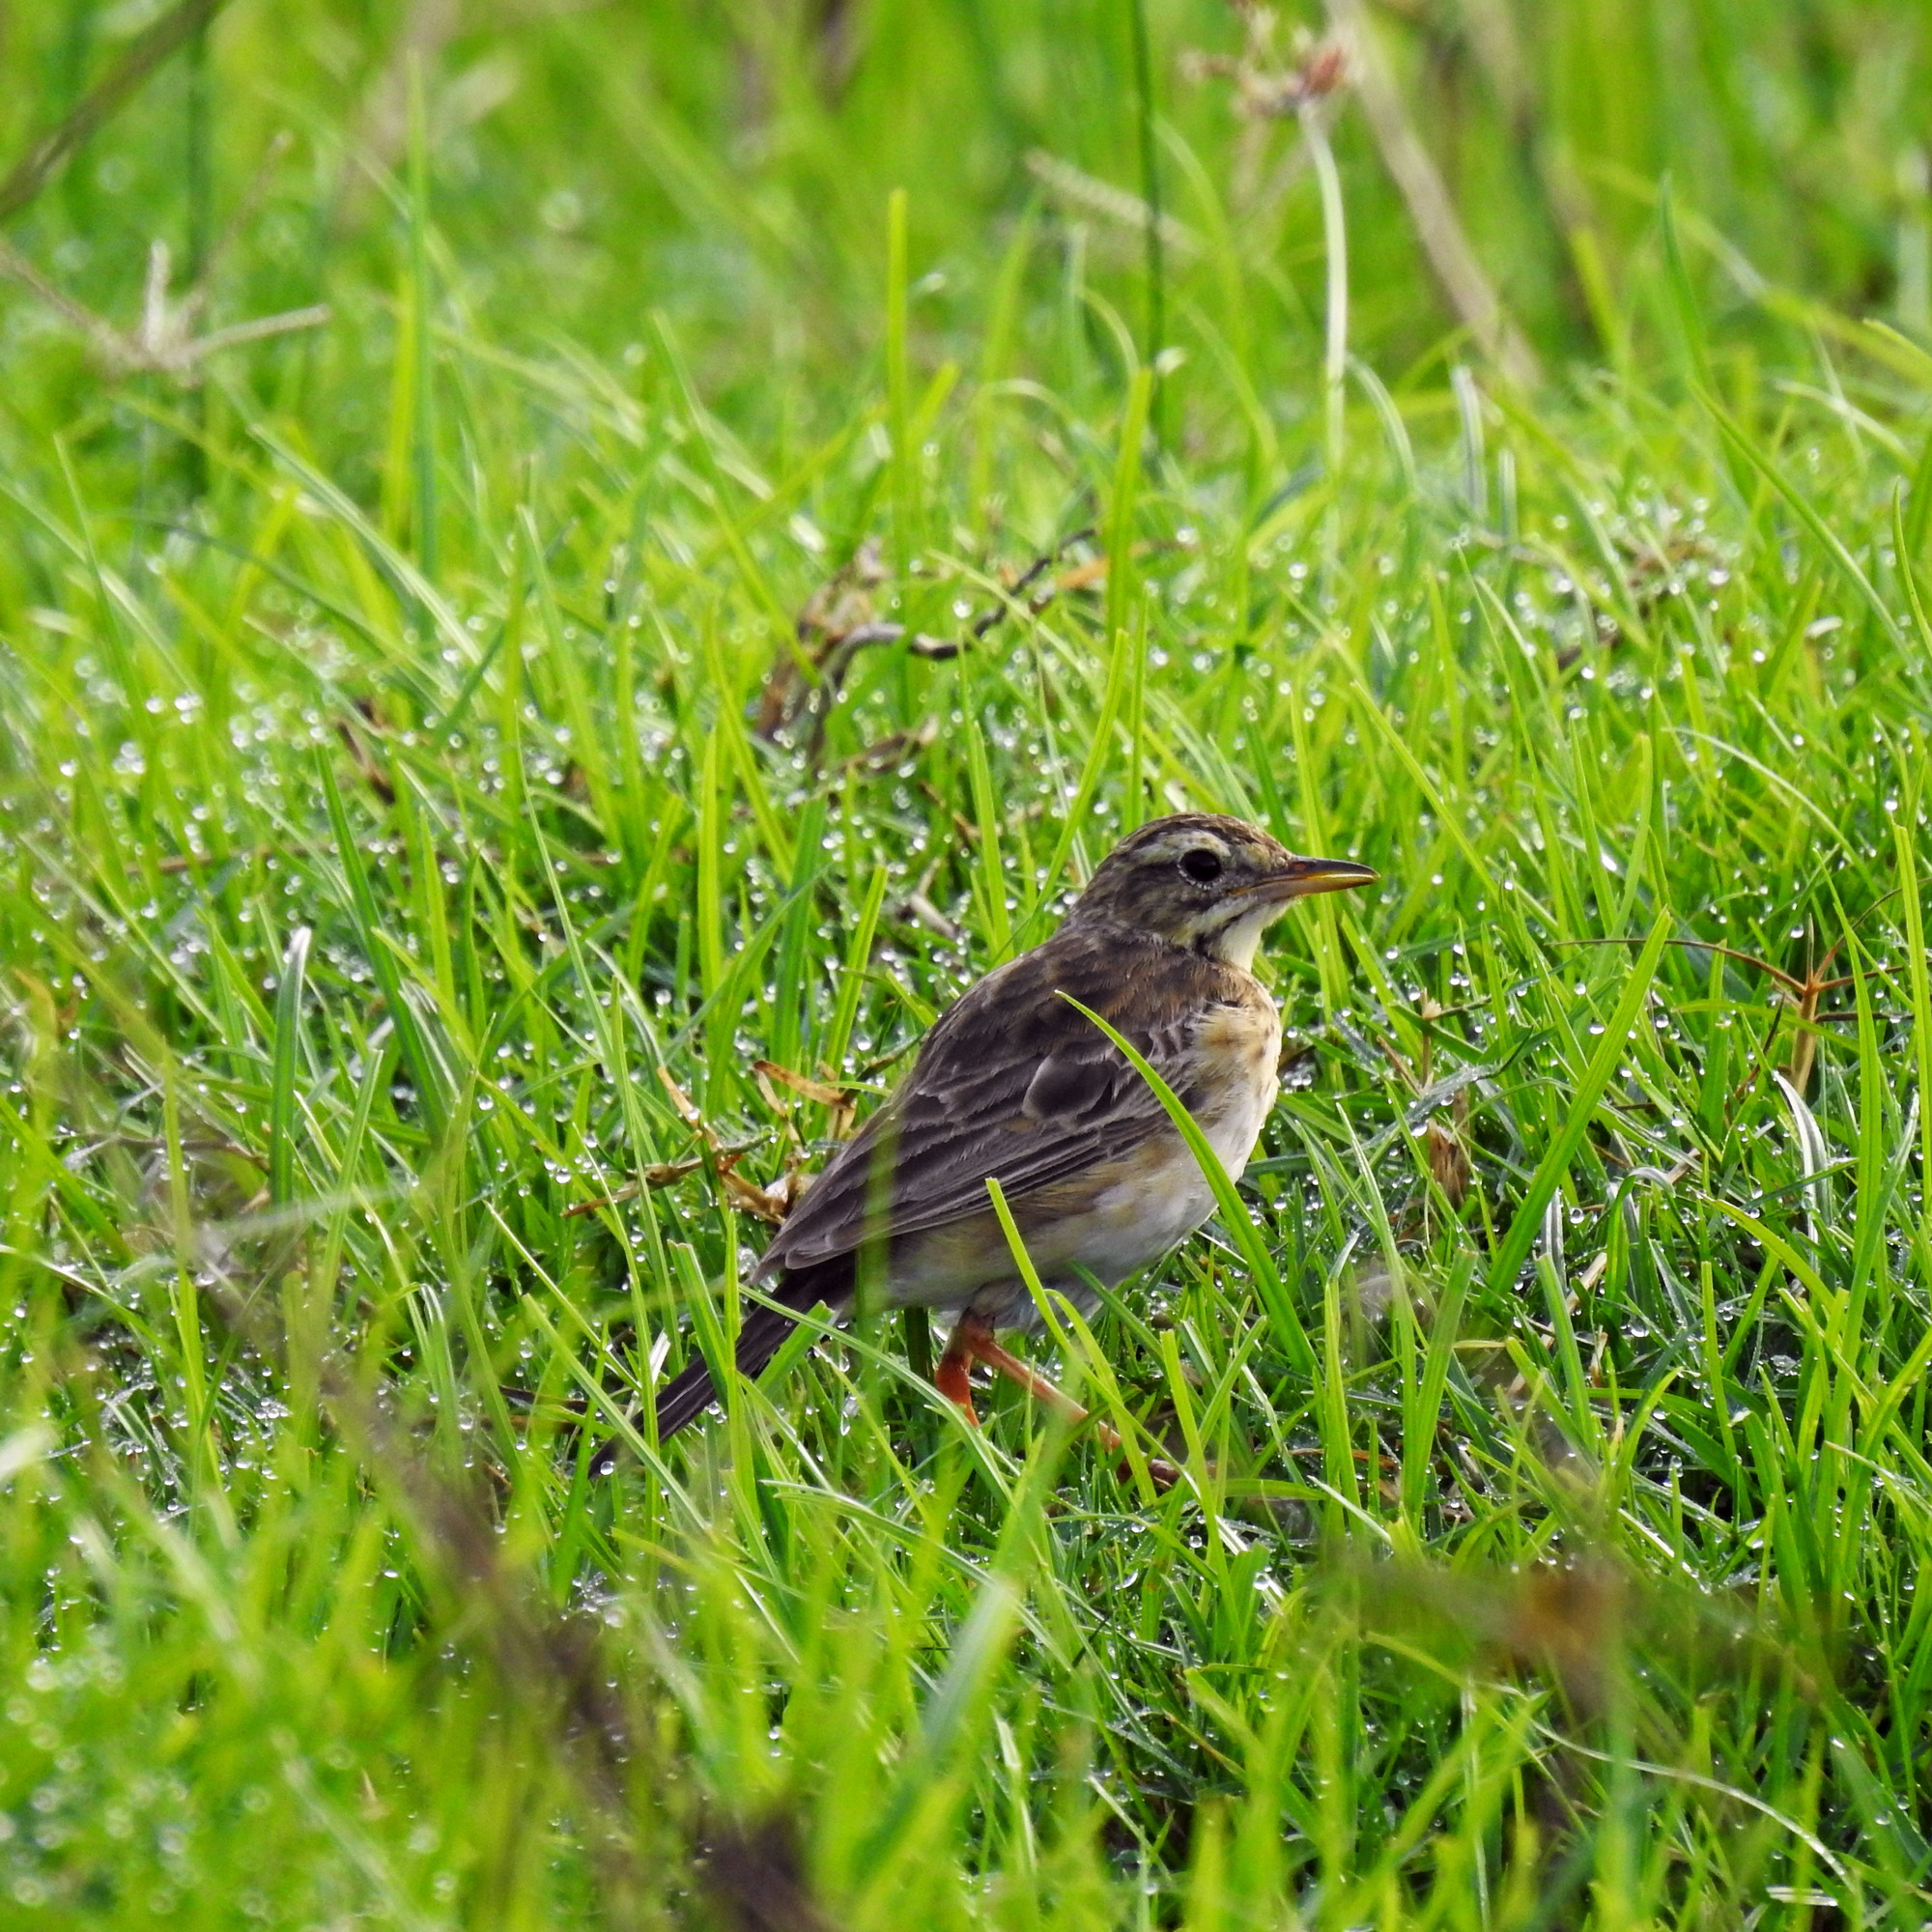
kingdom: Animalia
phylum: Chordata
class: Aves
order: Passeriformes
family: Motacillidae
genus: Anthus
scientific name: Anthus rufulus
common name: Paddyfield pipit
